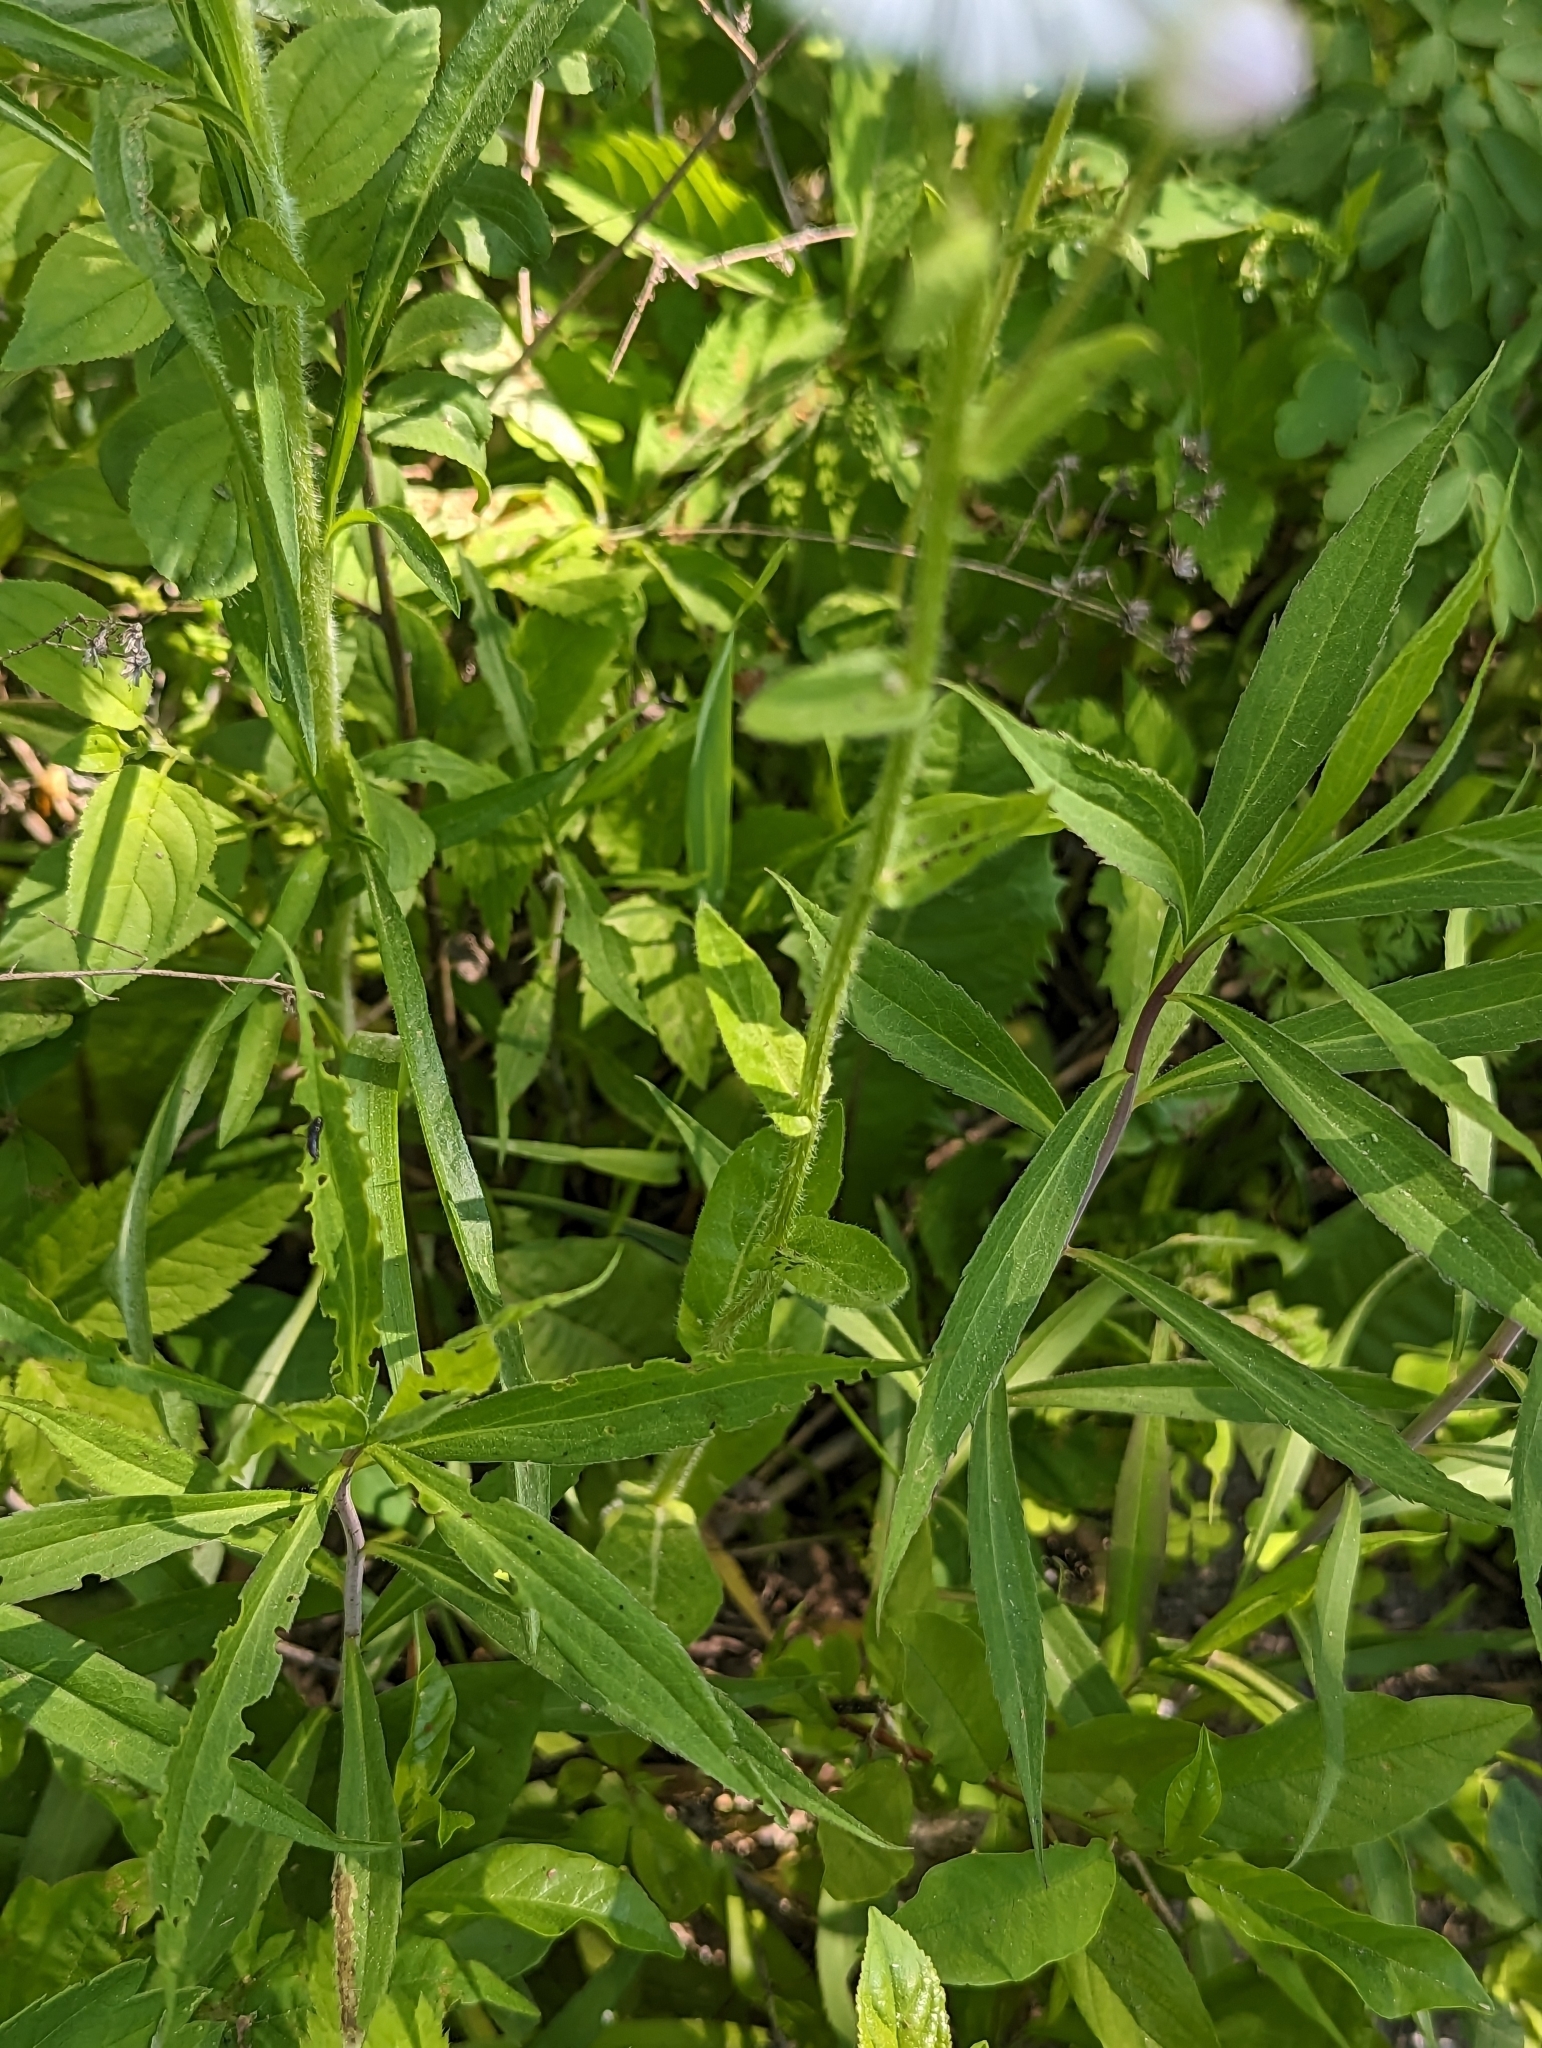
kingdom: Plantae
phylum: Tracheophyta
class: Magnoliopsida
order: Asterales
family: Asteraceae
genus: Erigeron
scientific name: Erigeron philadelphicus
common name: Robin's-plantain
